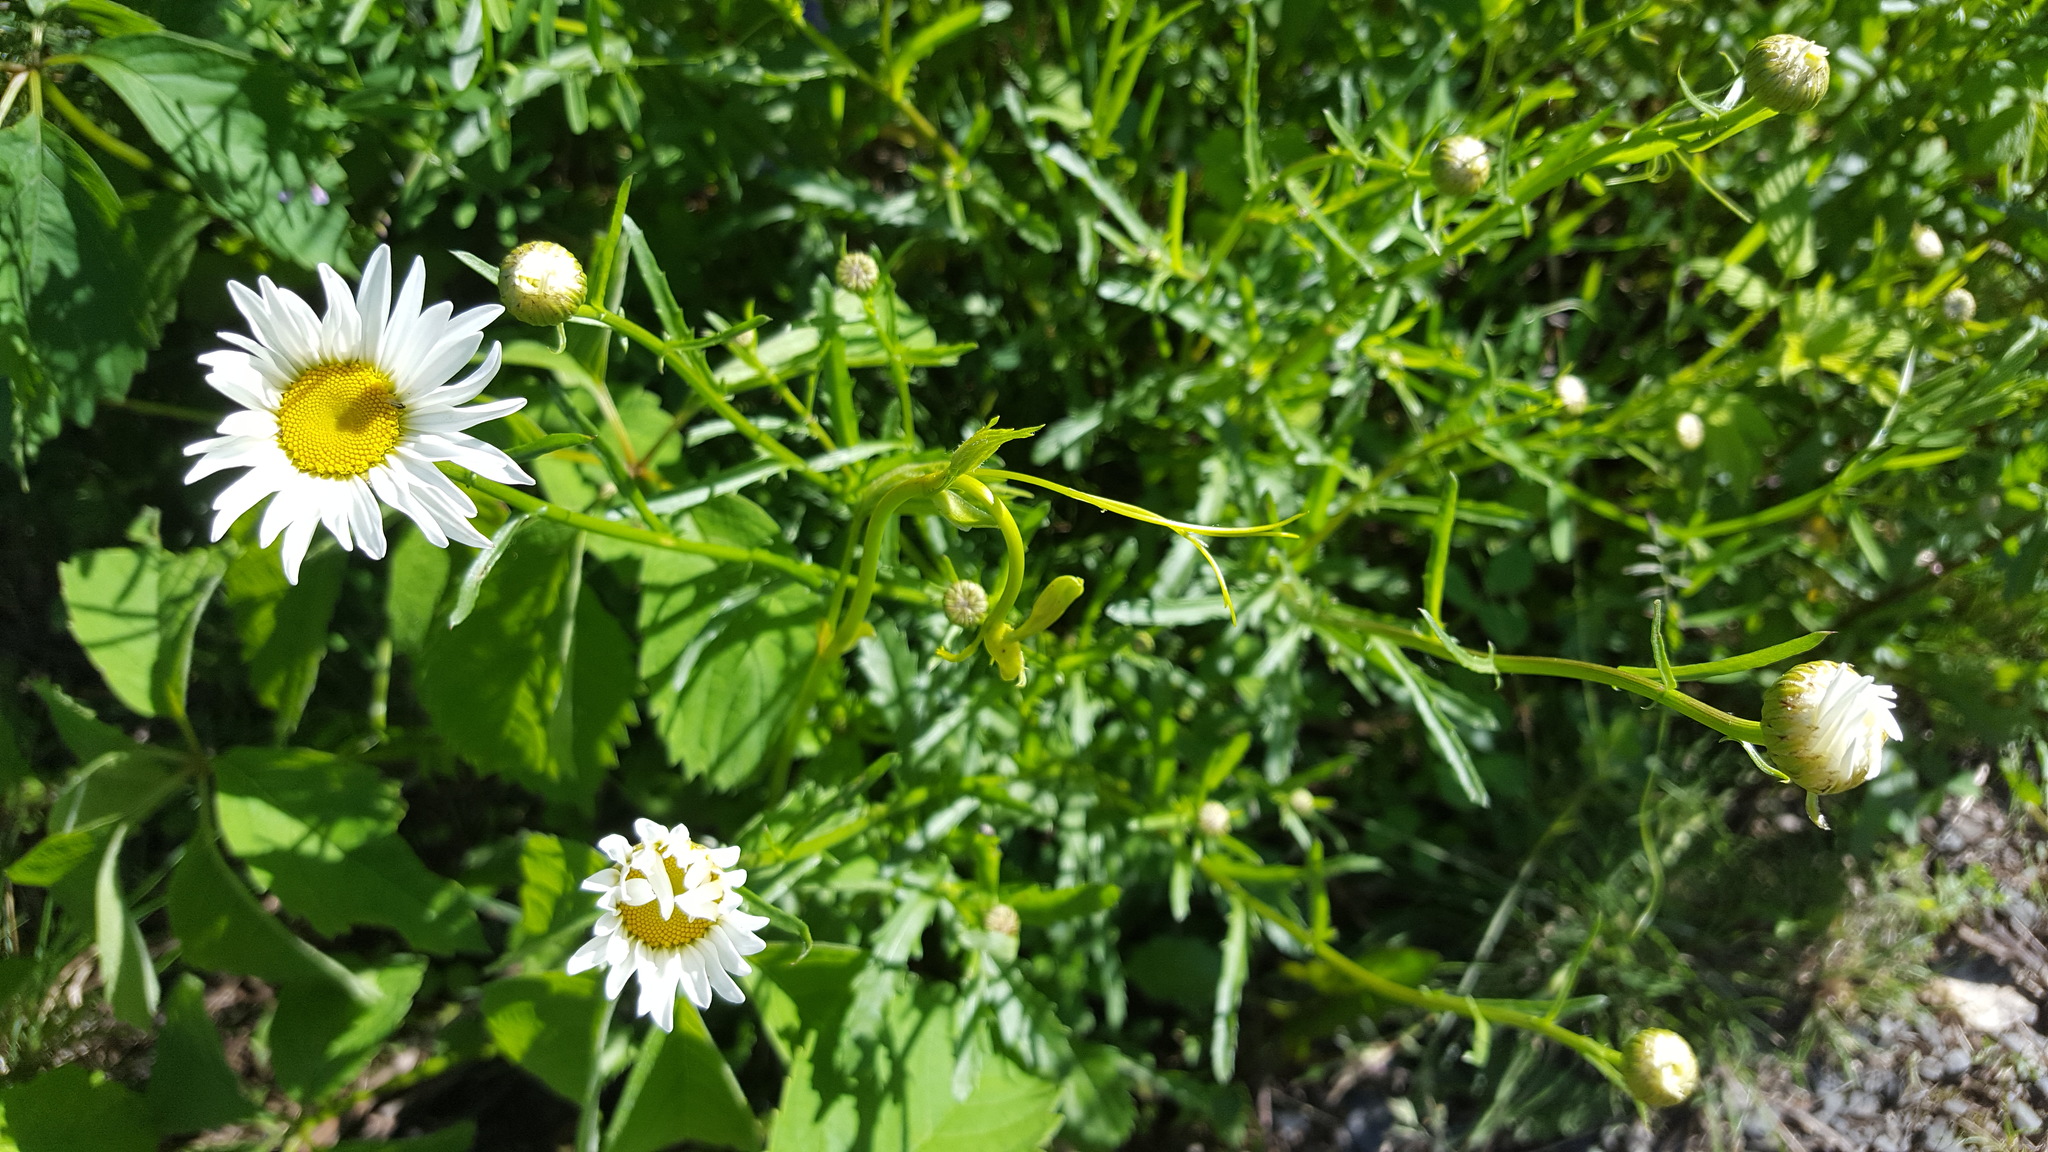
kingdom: Plantae
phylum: Tracheophyta
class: Magnoliopsida
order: Asterales
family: Asteraceae
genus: Leucanthemum
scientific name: Leucanthemum vulgare
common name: Oxeye daisy
